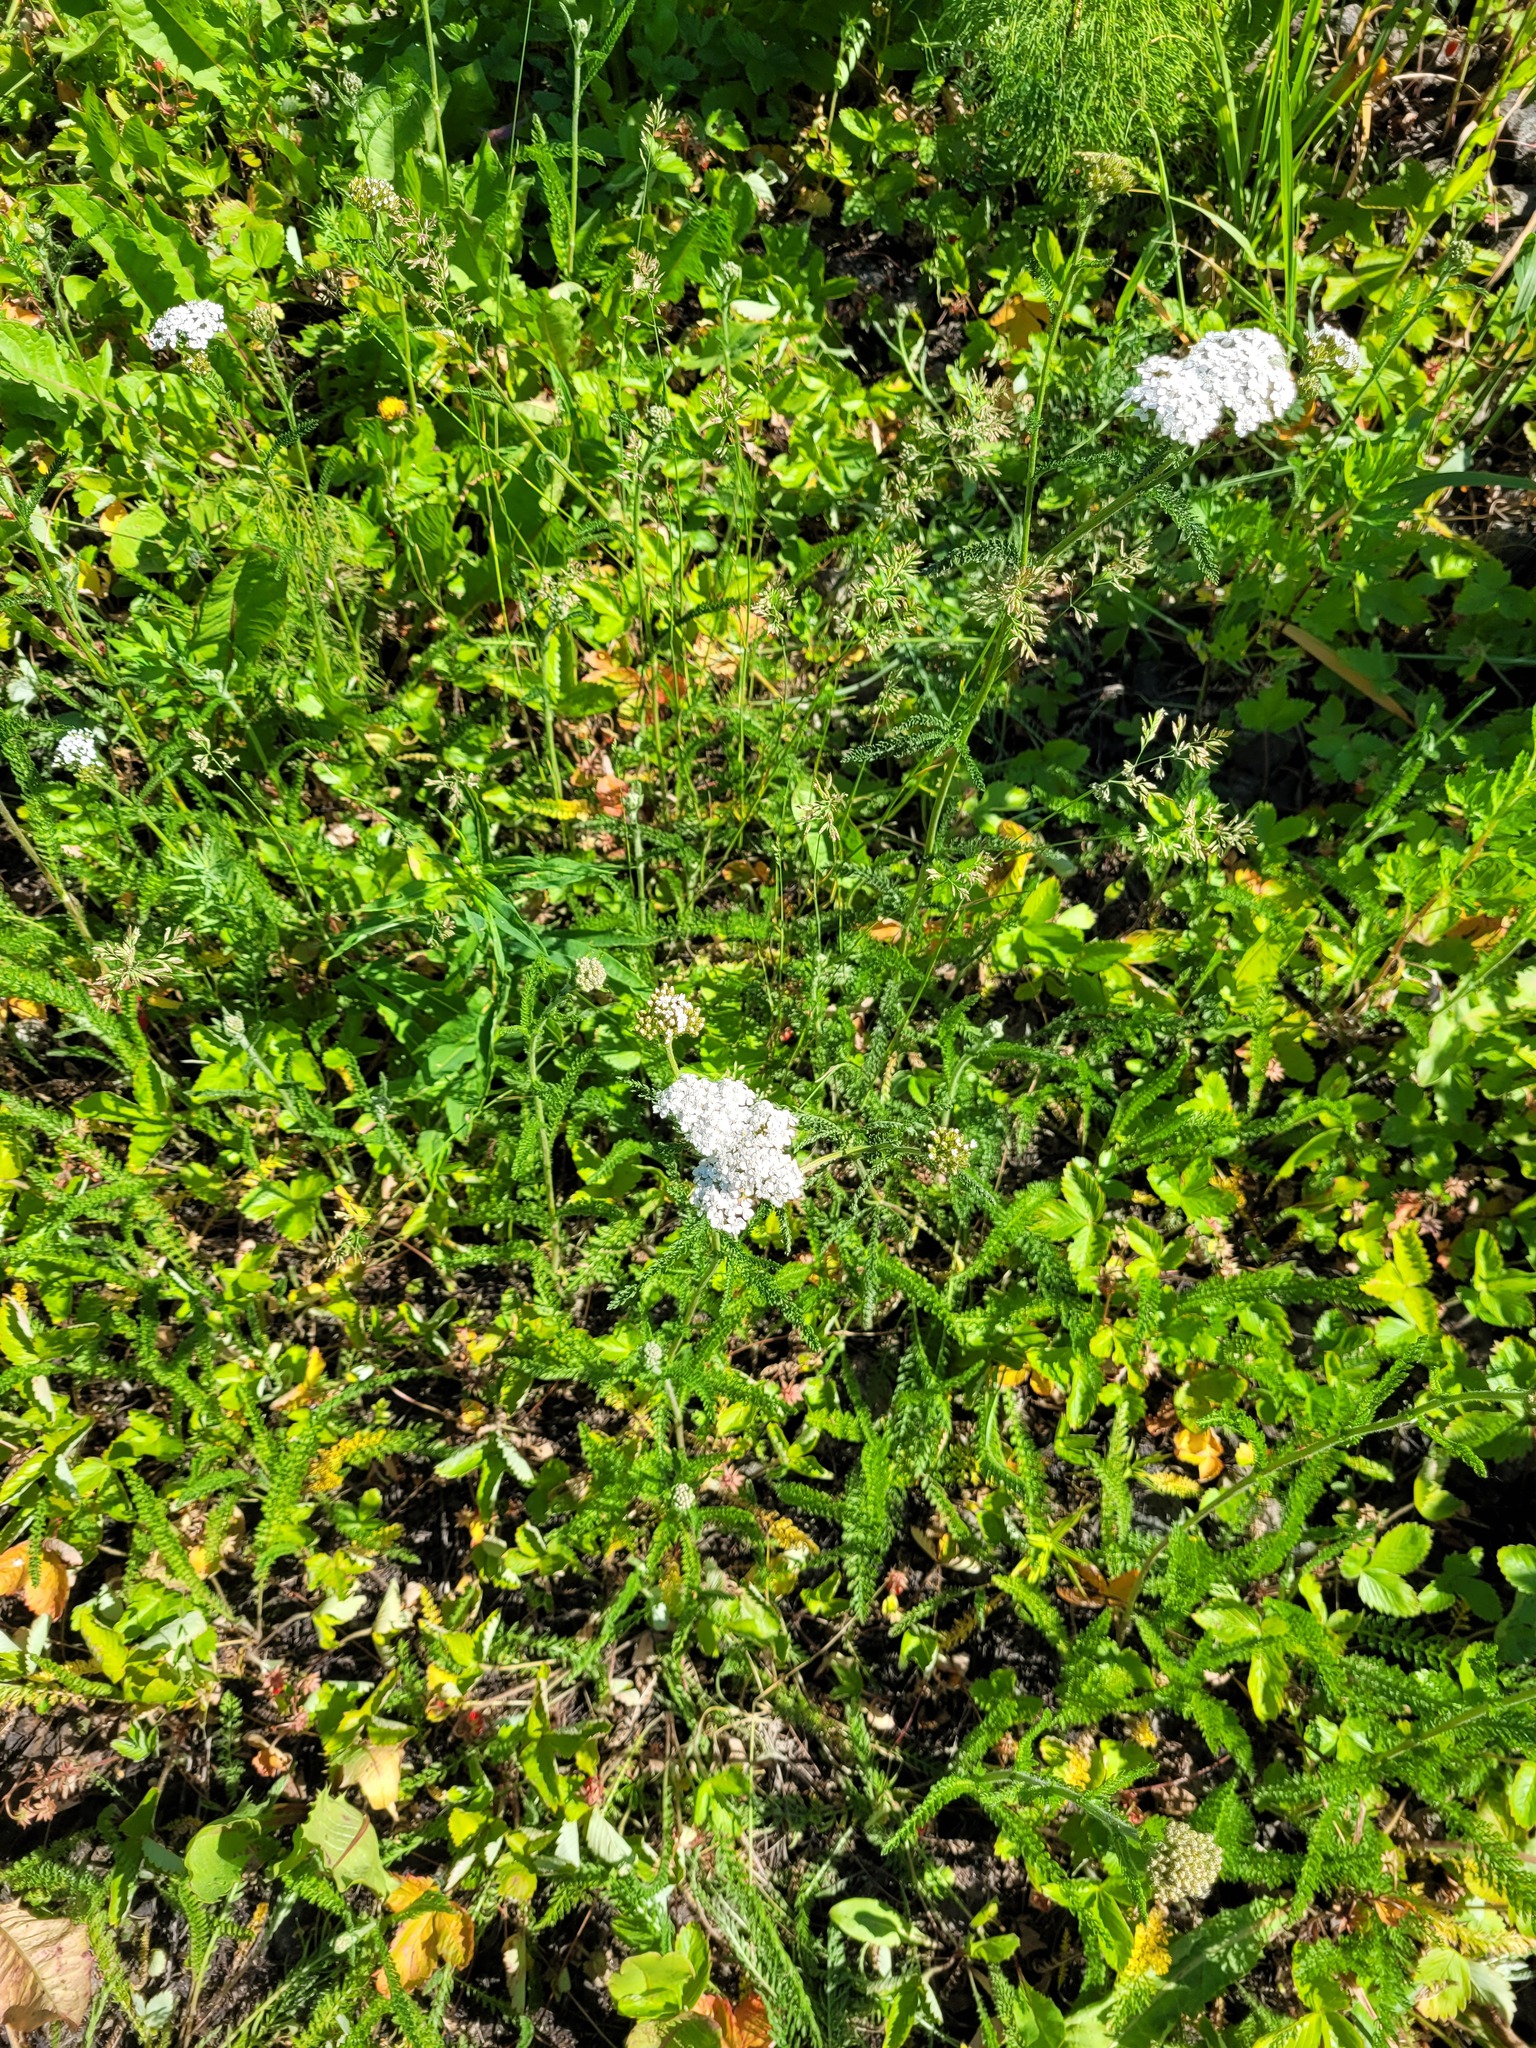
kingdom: Plantae
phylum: Tracheophyta
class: Magnoliopsida
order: Asterales
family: Asteraceae
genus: Achillea
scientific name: Achillea millefolium
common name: Yarrow
